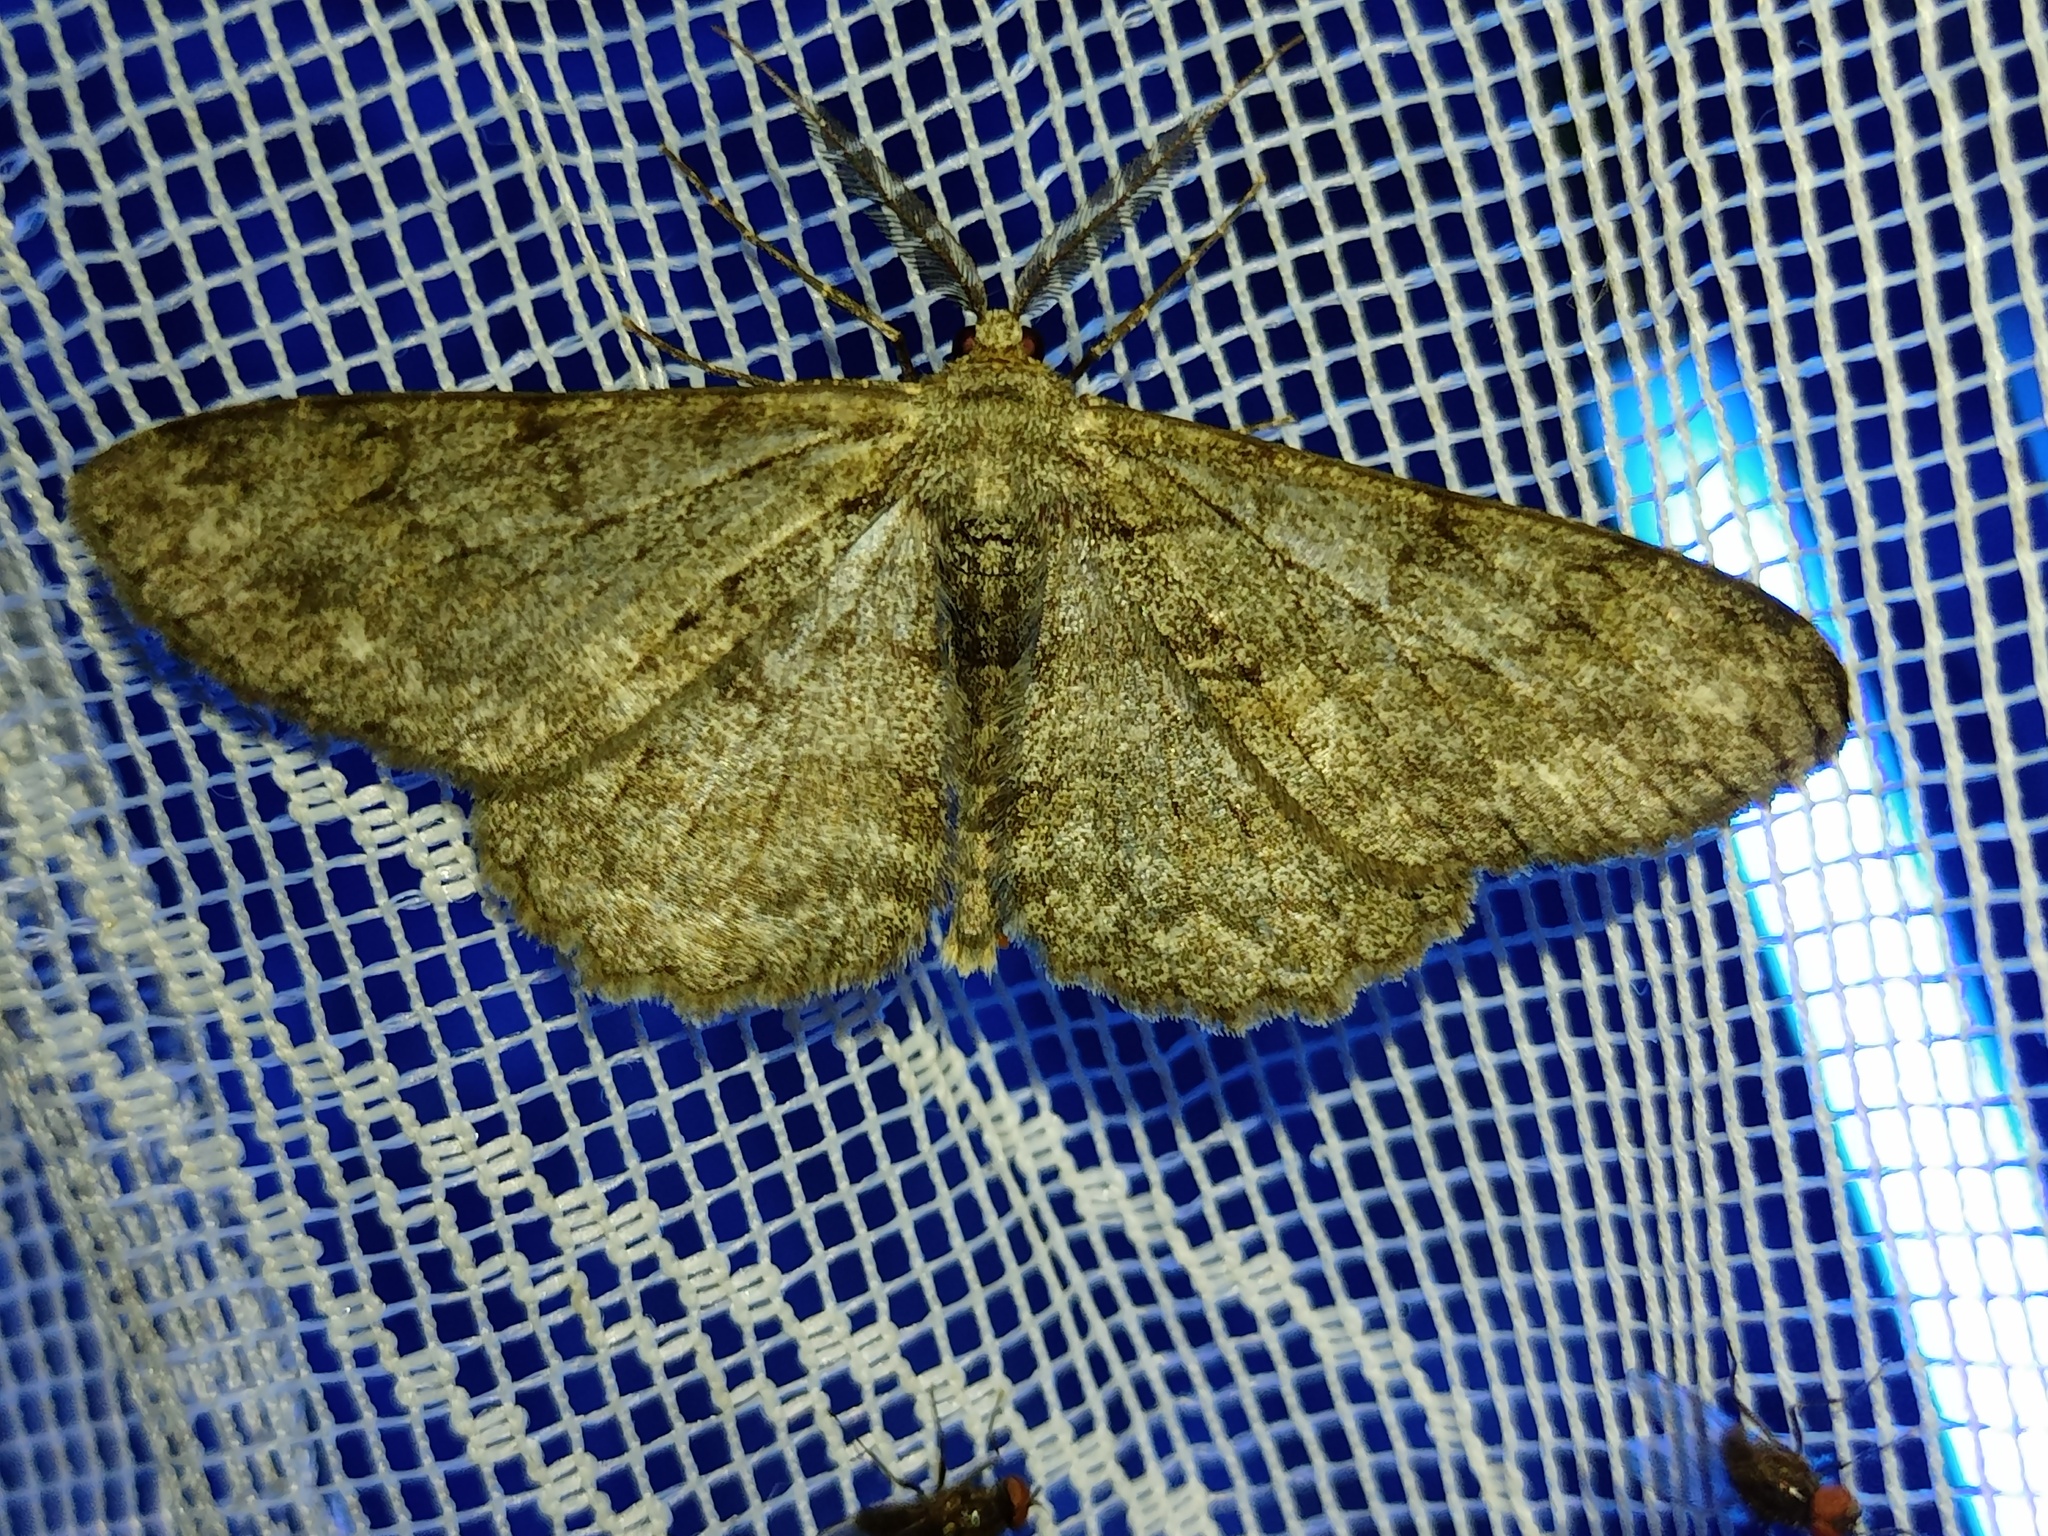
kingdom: Animalia
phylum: Arthropoda
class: Insecta
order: Lepidoptera
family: Geometridae
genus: Hypomecis
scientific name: Hypomecis punctinalis
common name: Pale oak beauty
